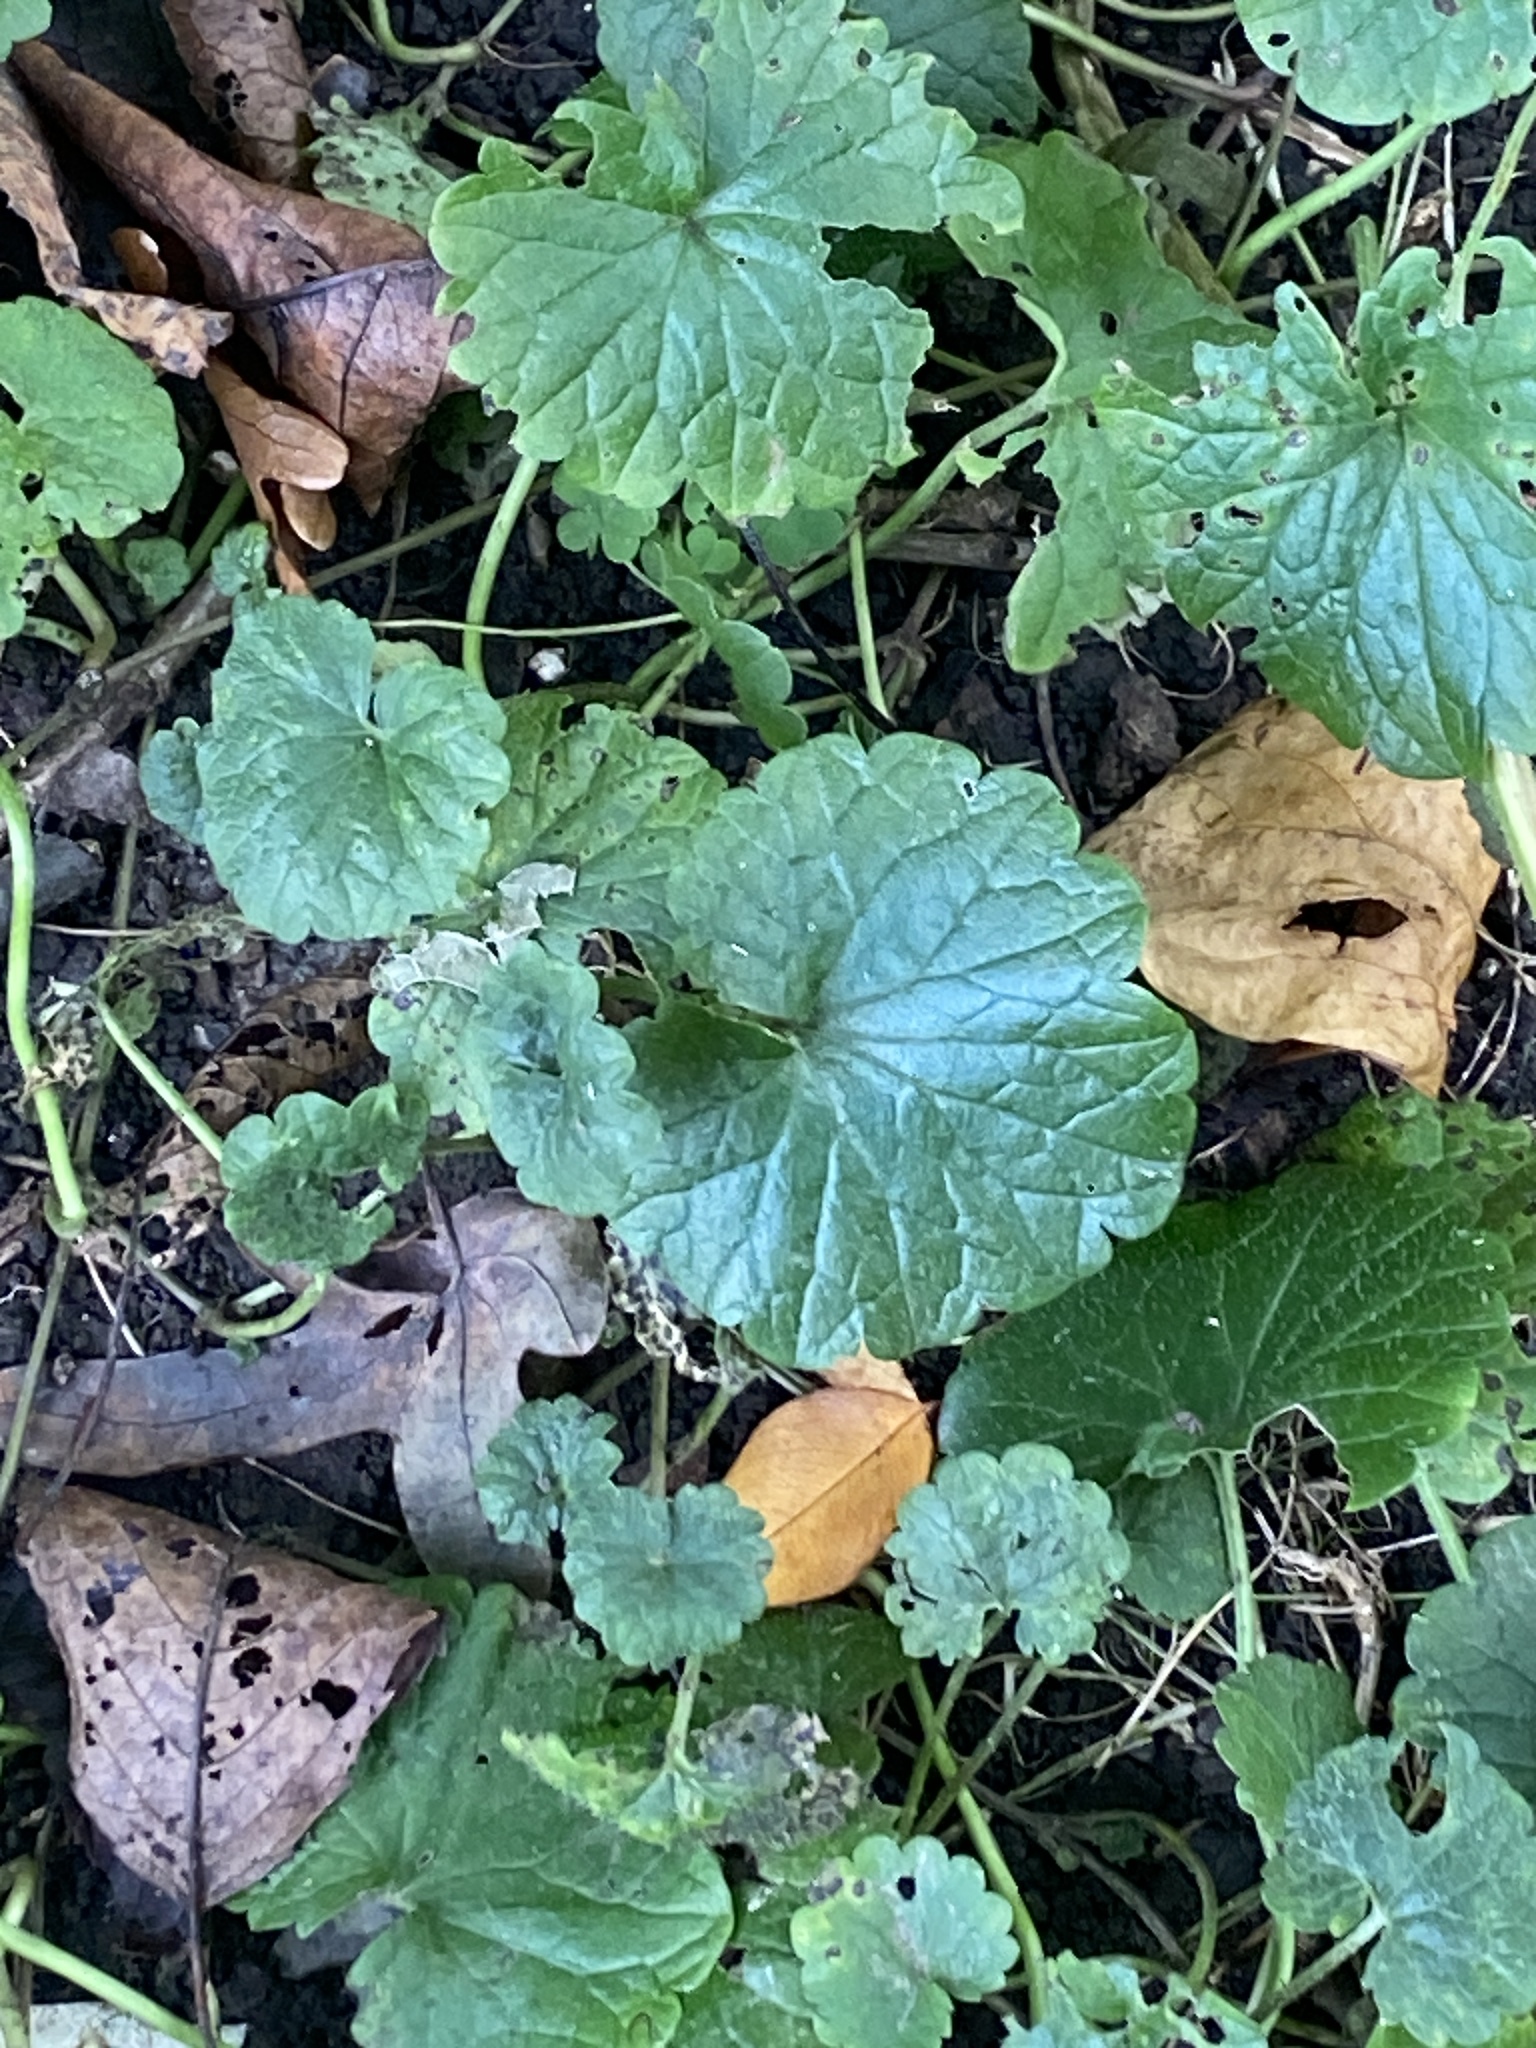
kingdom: Plantae
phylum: Tracheophyta
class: Magnoliopsida
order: Lamiales
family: Lamiaceae
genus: Glechoma
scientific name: Glechoma hederacea
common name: Ground ivy
